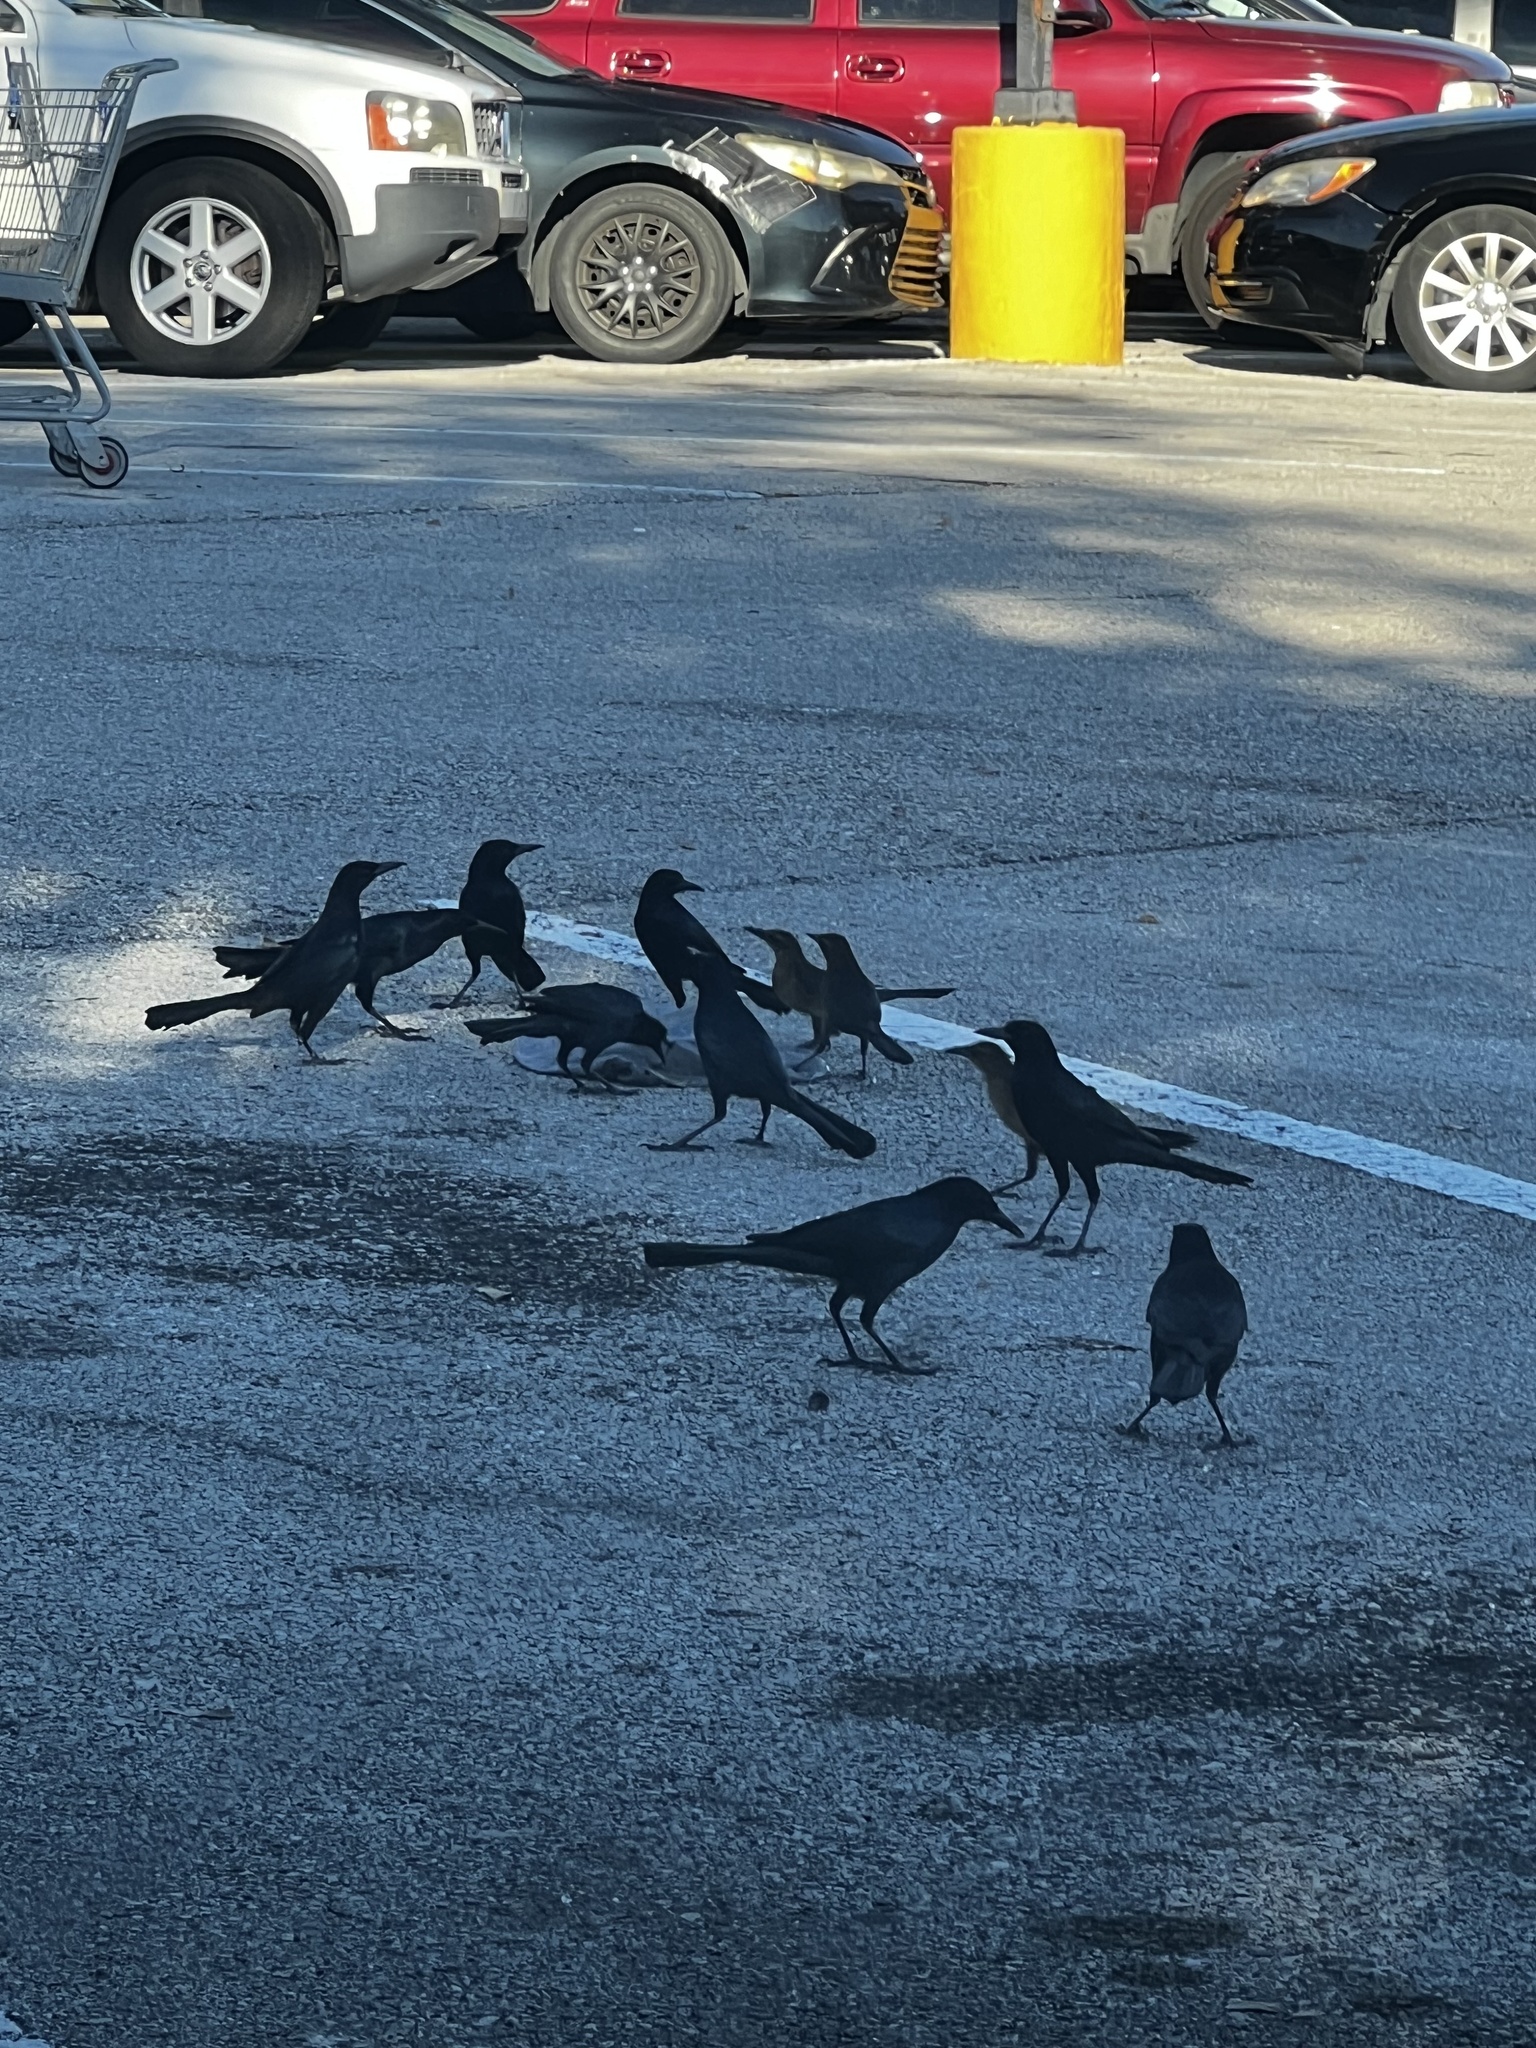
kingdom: Animalia
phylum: Chordata
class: Aves
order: Passeriformes
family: Icteridae
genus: Quiscalus
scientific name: Quiscalus major
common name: Boat-tailed grackle
